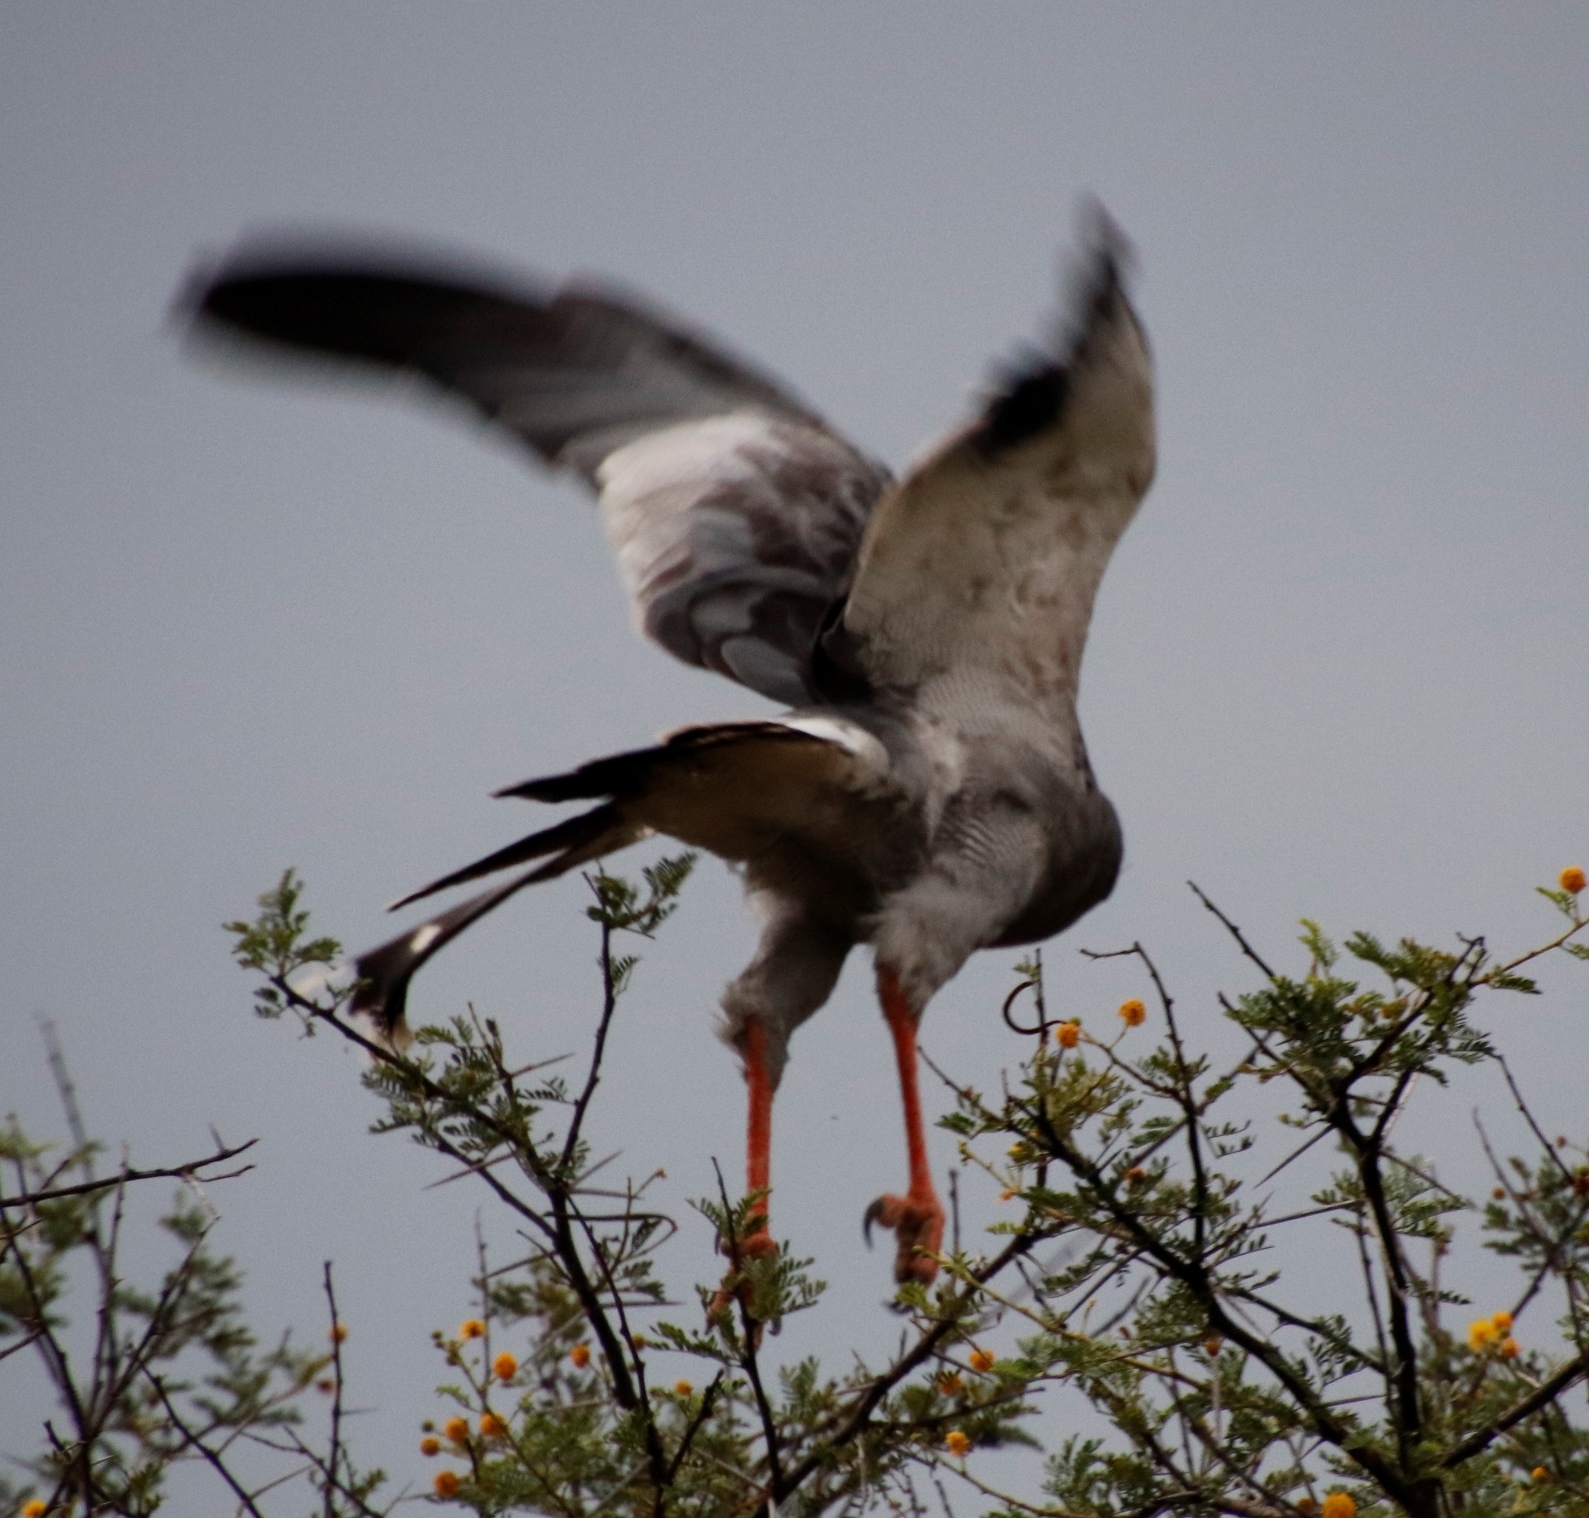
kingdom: Animalia
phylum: Chordata
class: Aves
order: Accipitriformes
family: Accipitridae
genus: Melierax
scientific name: Melierax canorus
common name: Pale chanting-goshawk
